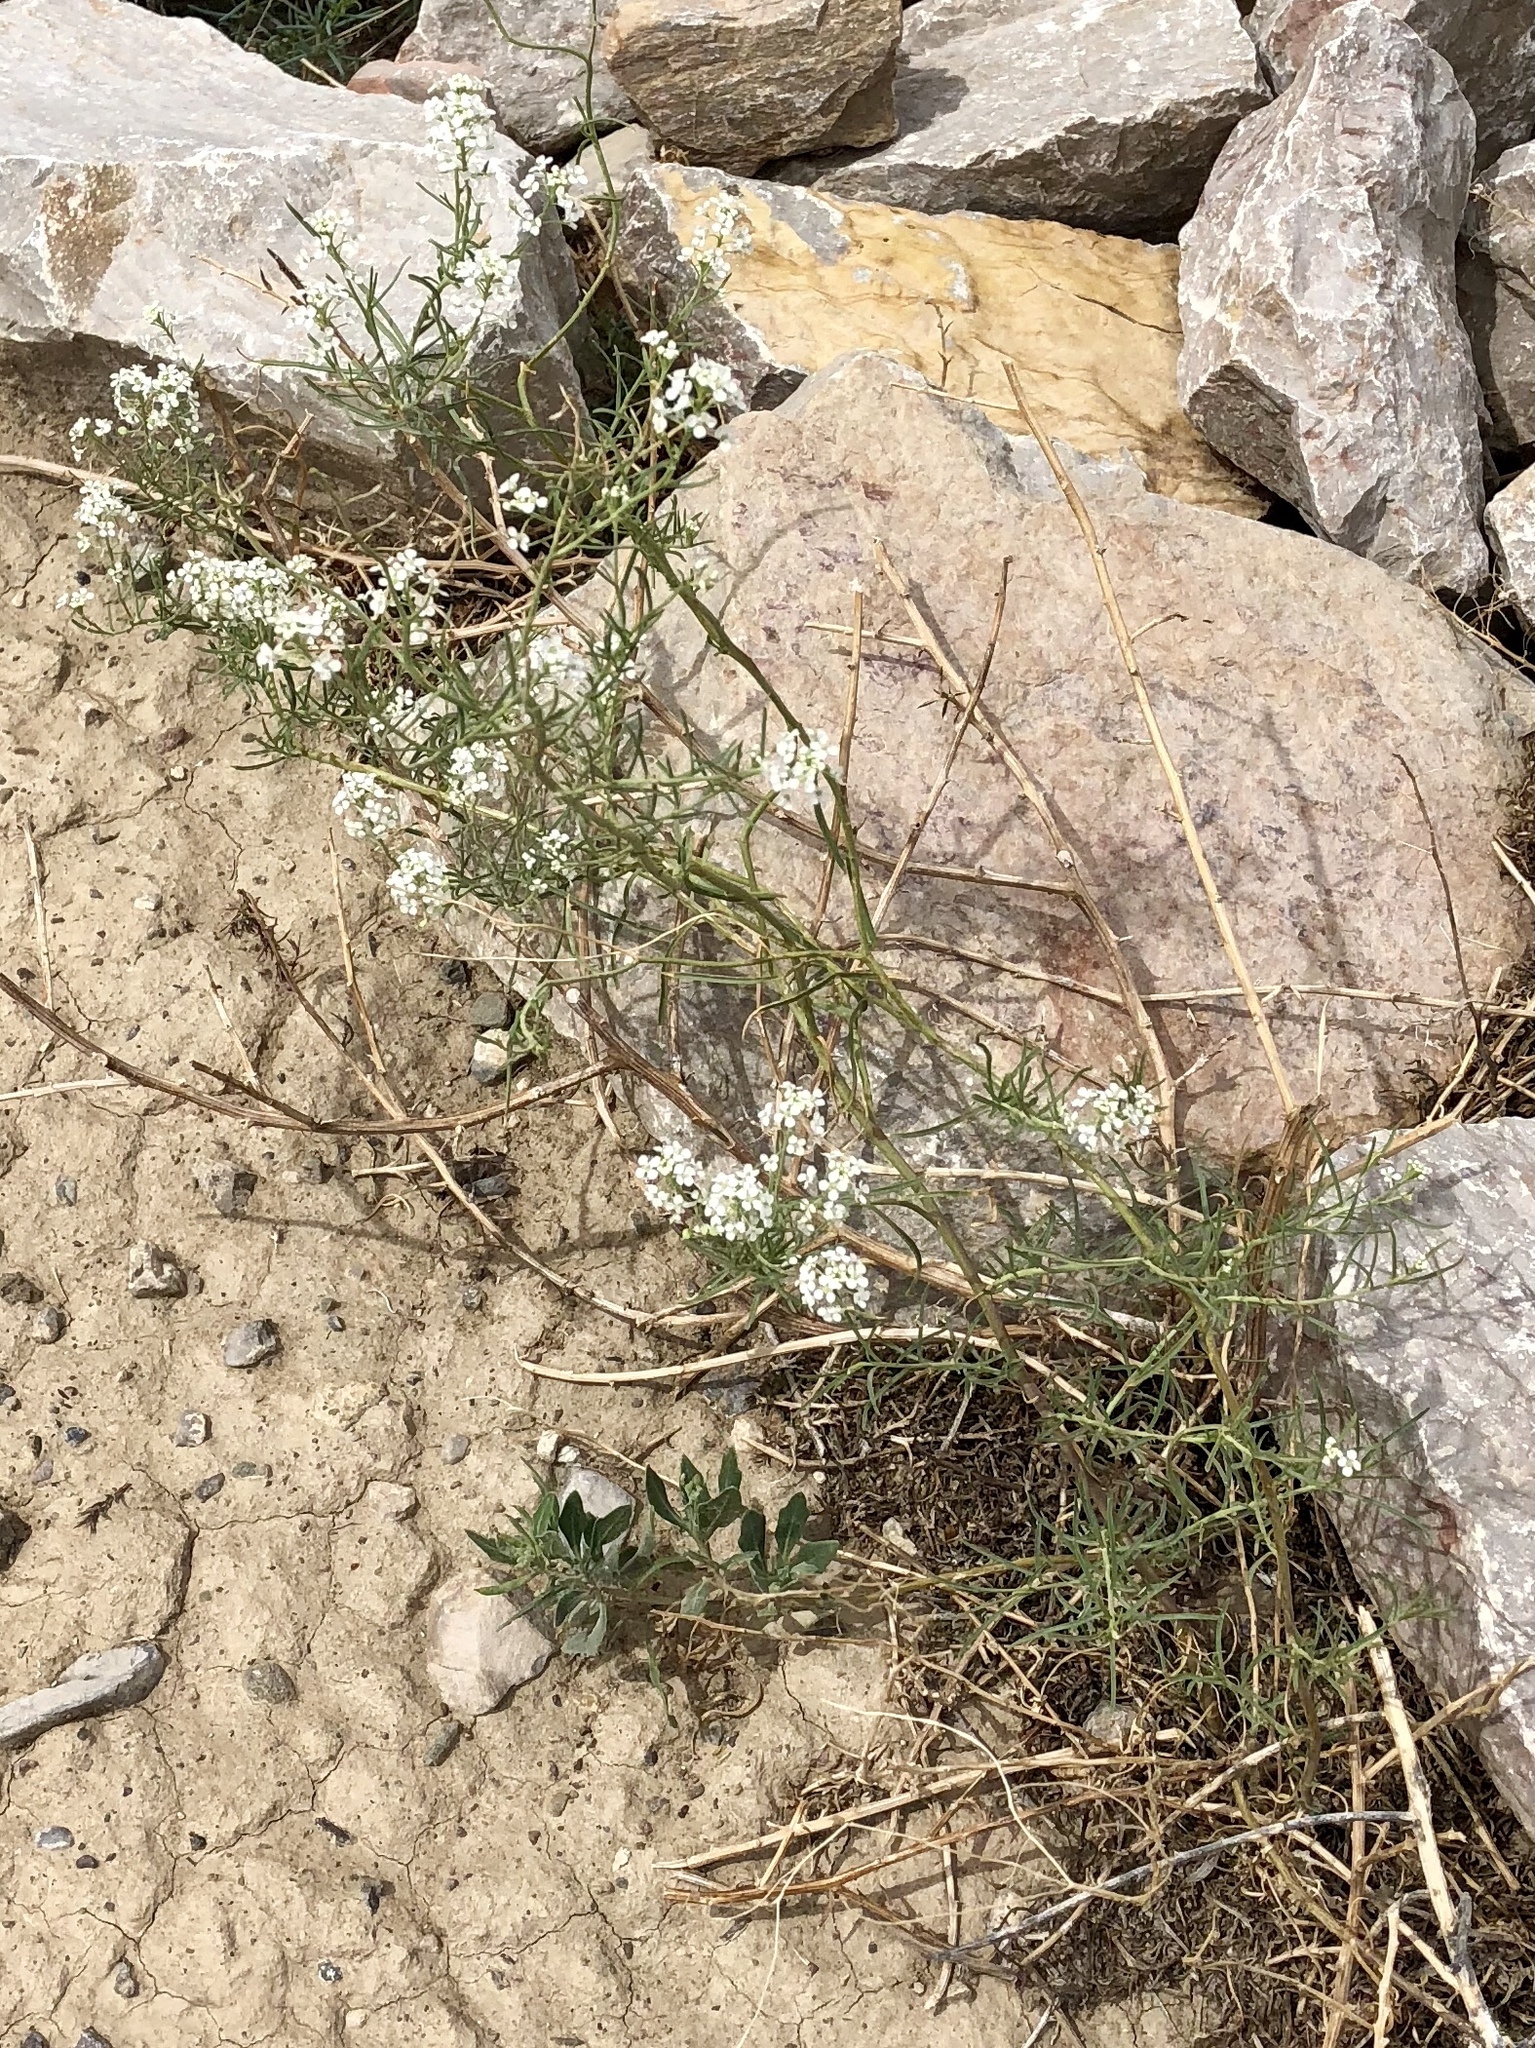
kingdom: Plantae
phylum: Tracheophyta
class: Magnoliopsida
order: Brassicales
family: Brassicaceae
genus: Lepidium
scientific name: Lepidium montanum
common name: Mountain pepperplant
